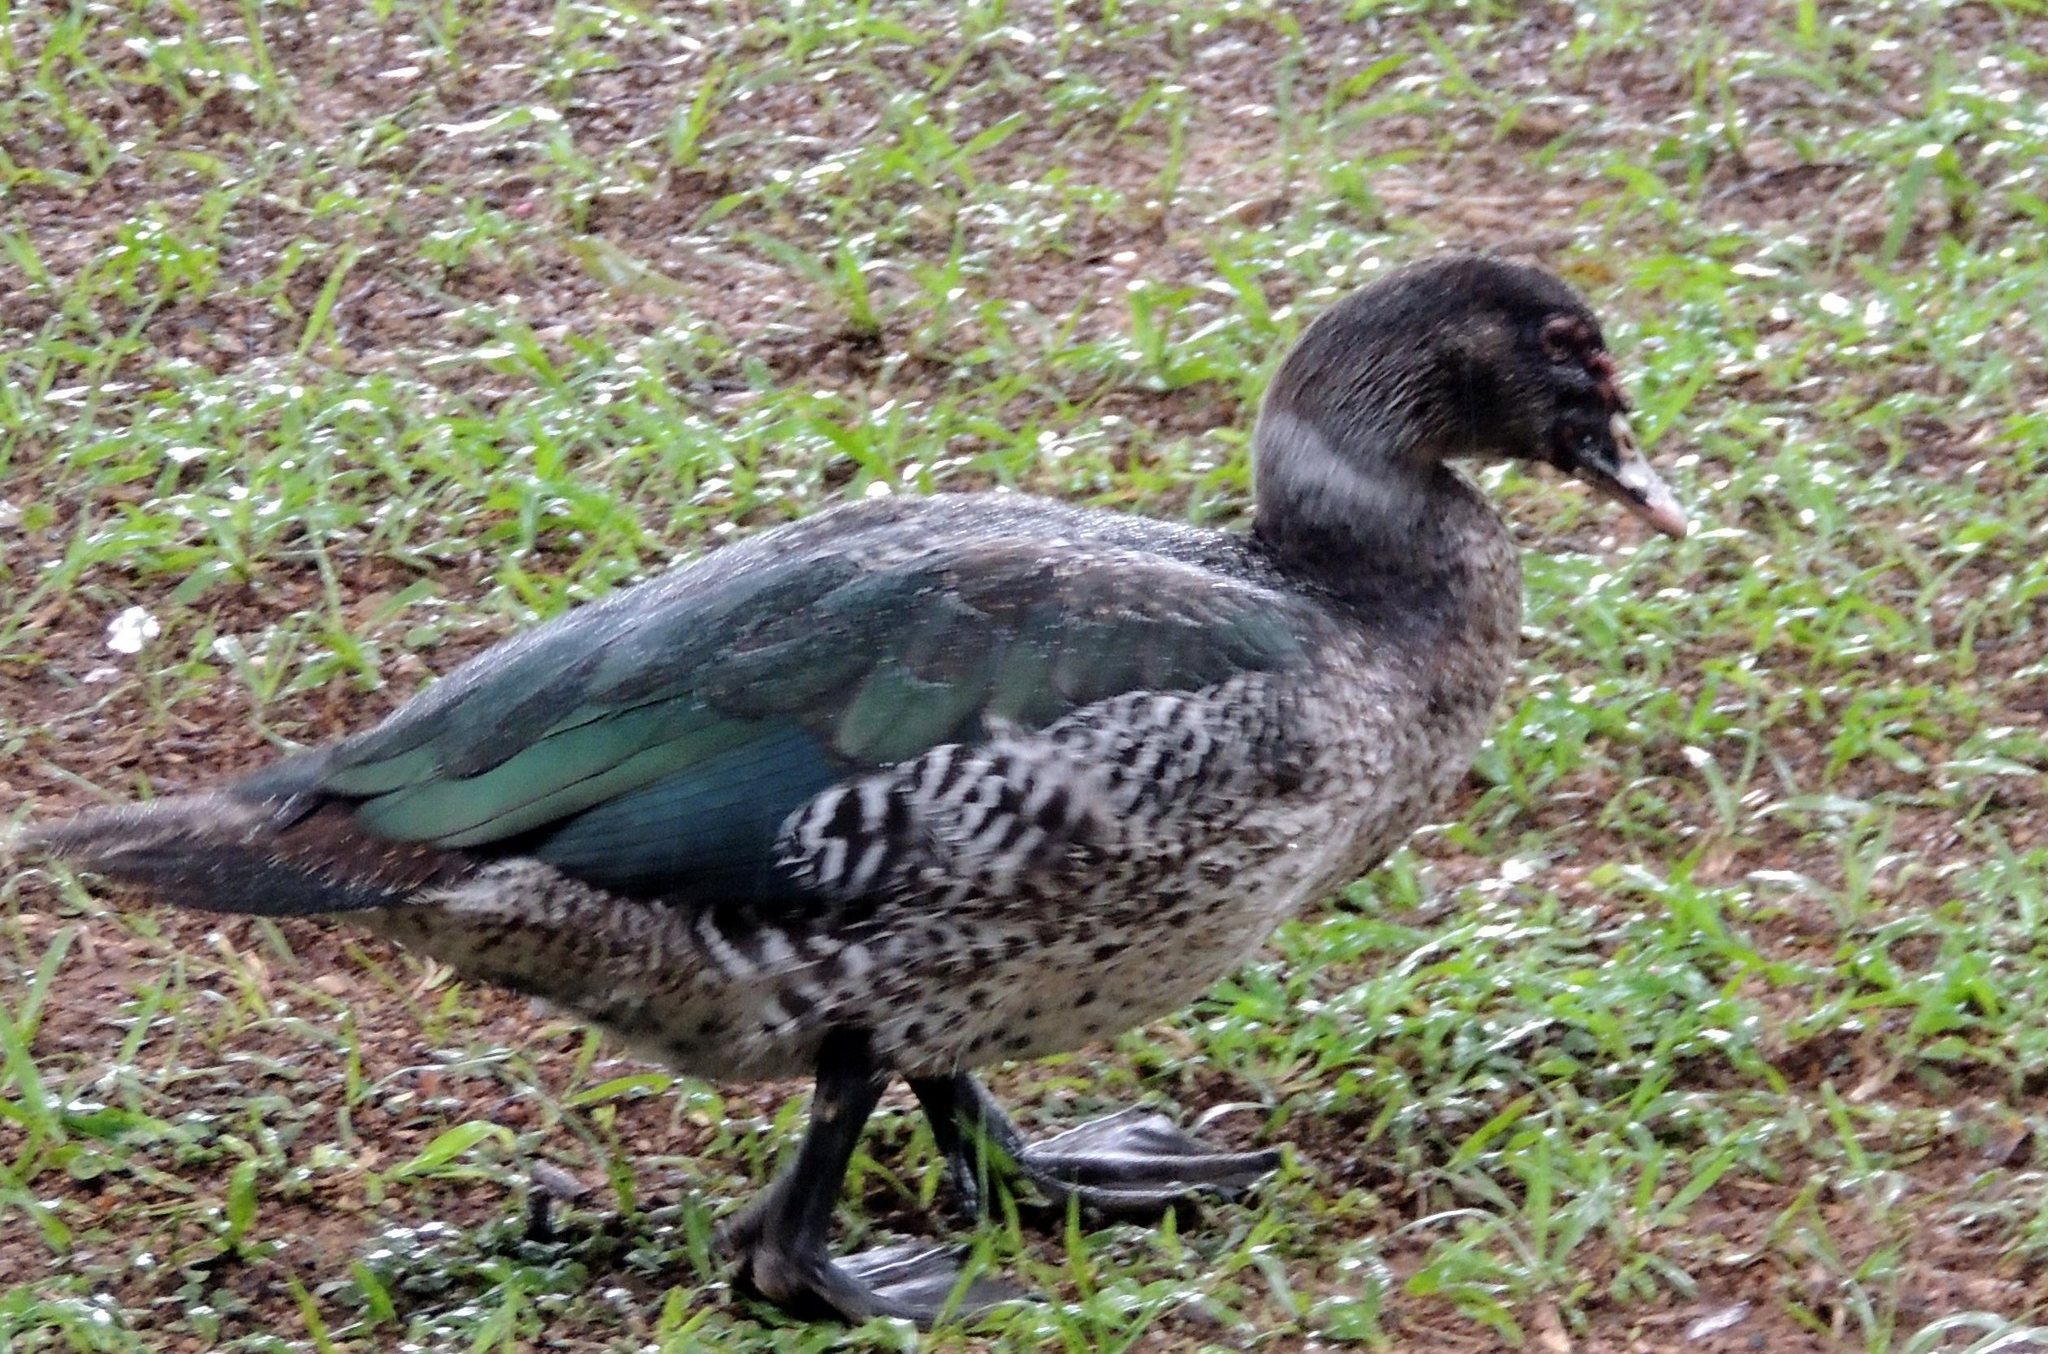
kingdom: Animalia
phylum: Chordata
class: Aves
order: Anseriformes
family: Anatidae
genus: Cairina
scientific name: Cairina moschata
